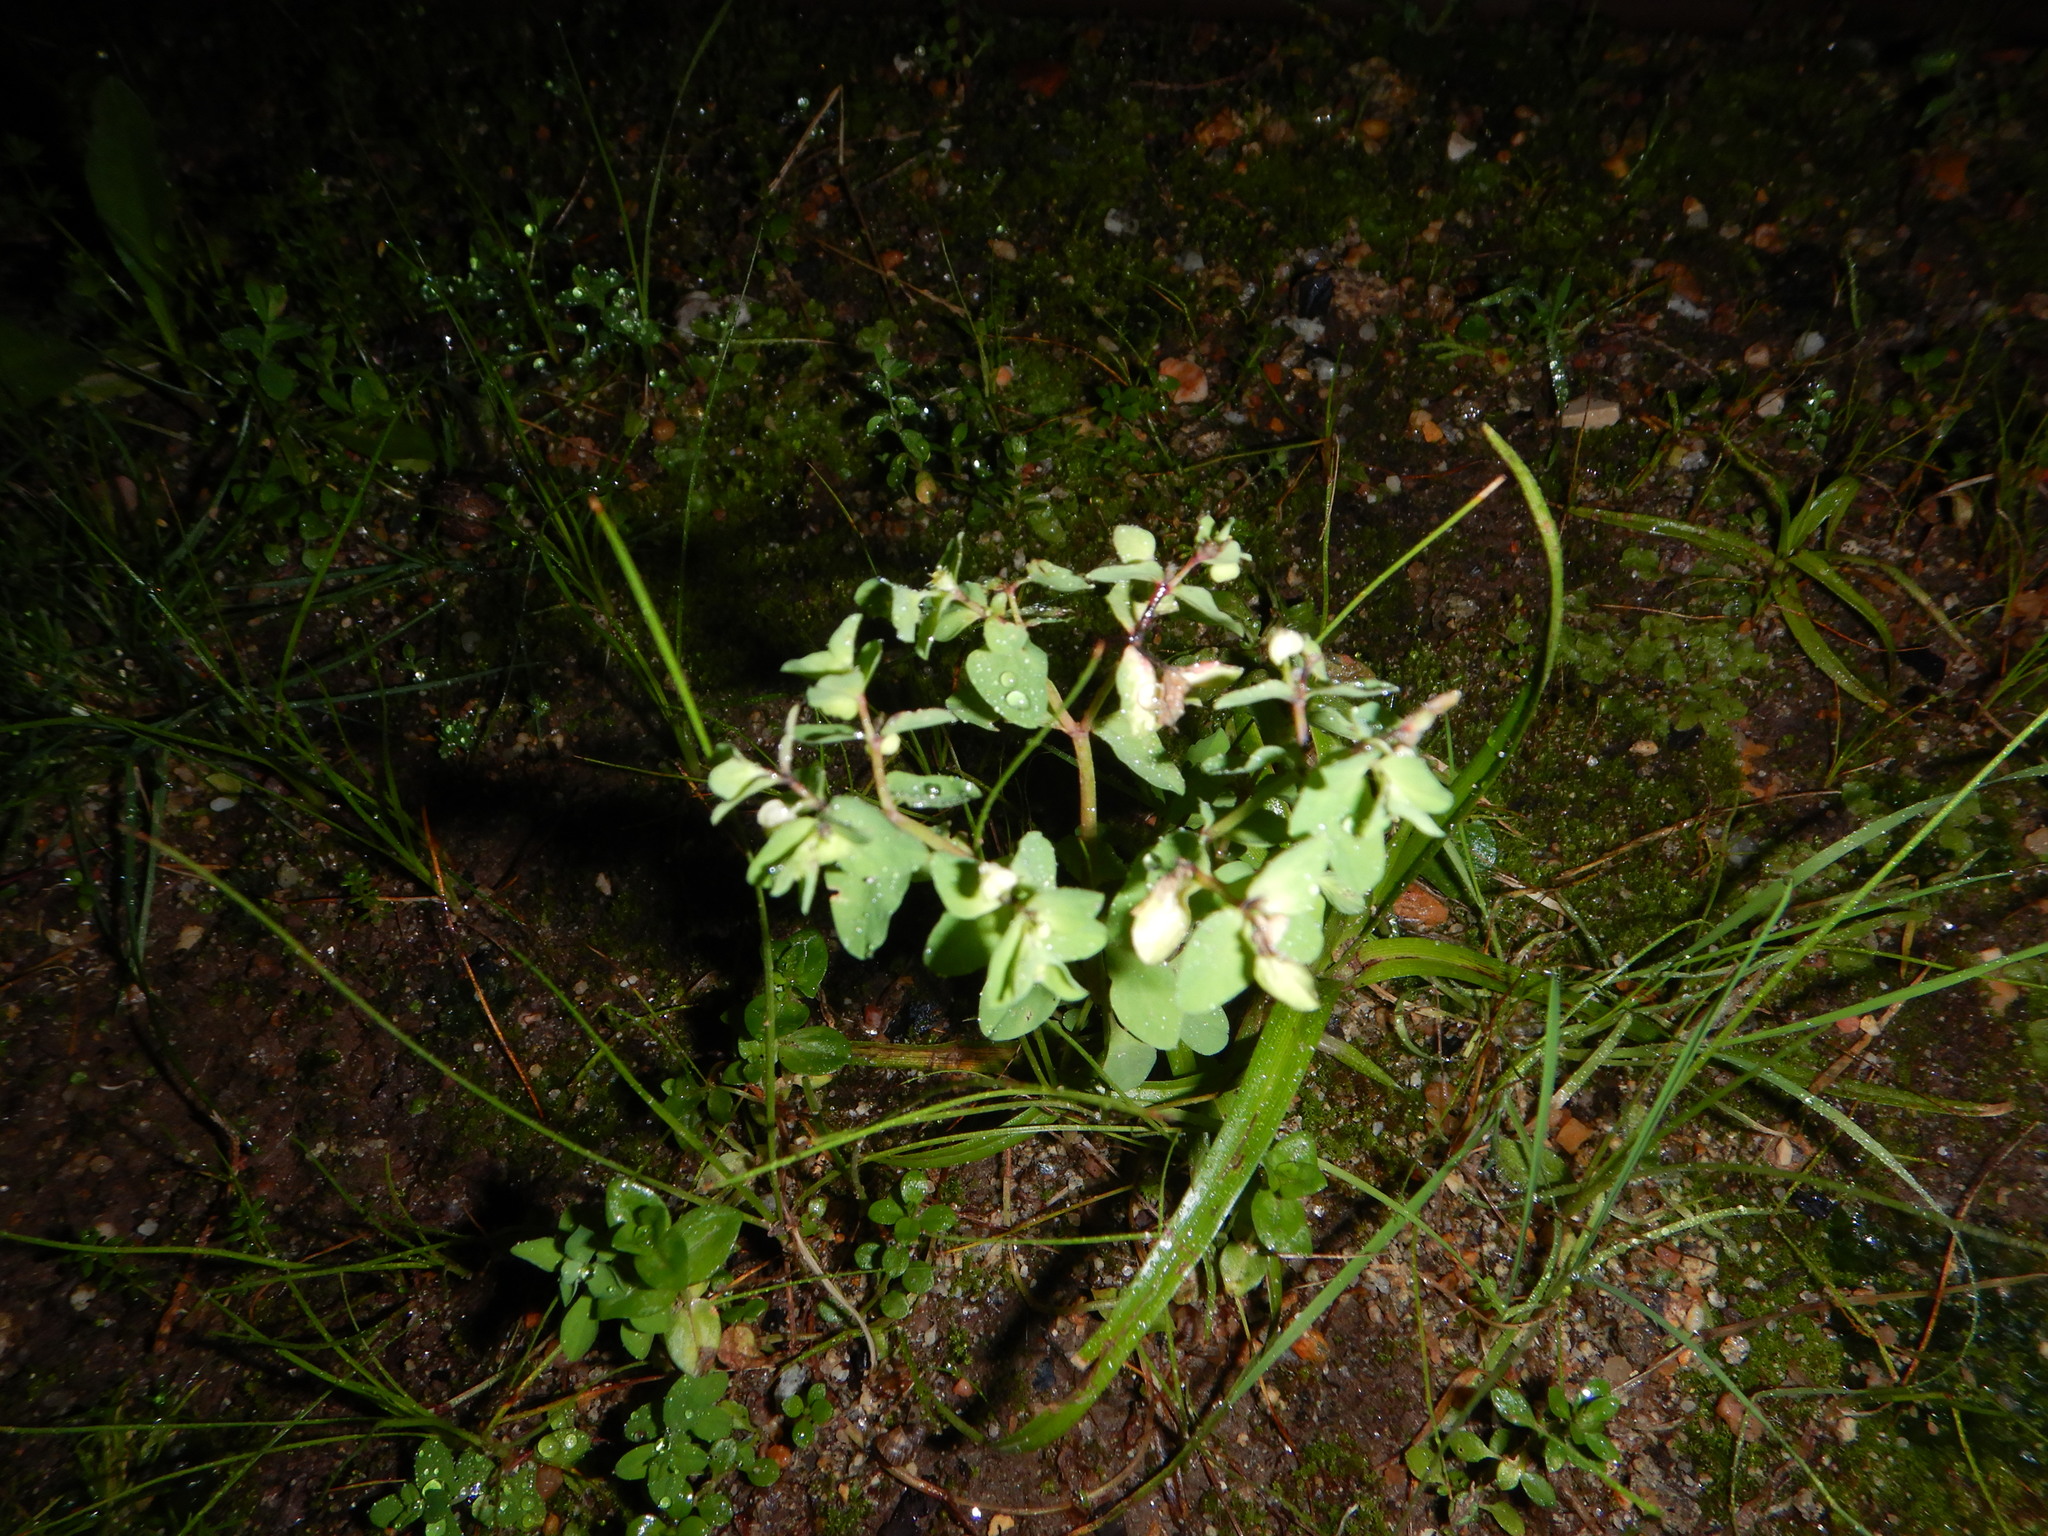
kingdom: Plantae
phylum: Tracheophyta
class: Magnoliopsida
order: Malpighiales
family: Euphorbiaceae
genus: Euphorbia
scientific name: Euphorbia peplus
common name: Petty spurge
